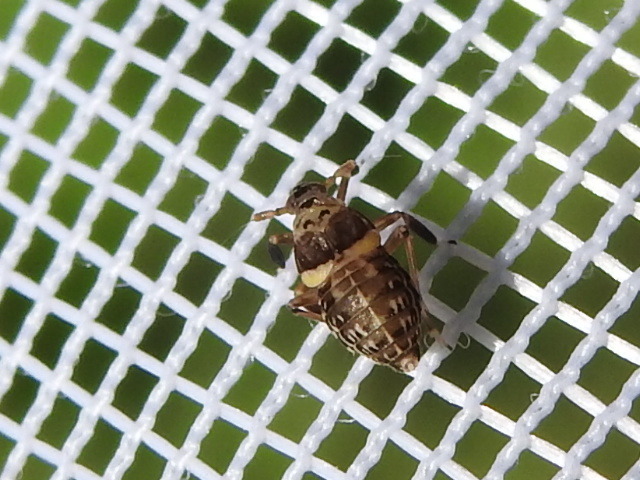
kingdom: Animalia
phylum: Arthropoda
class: Insecta
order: Hemiptera
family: Delphacidae
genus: Pissonotus
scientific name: Pissonotus flabellatus
